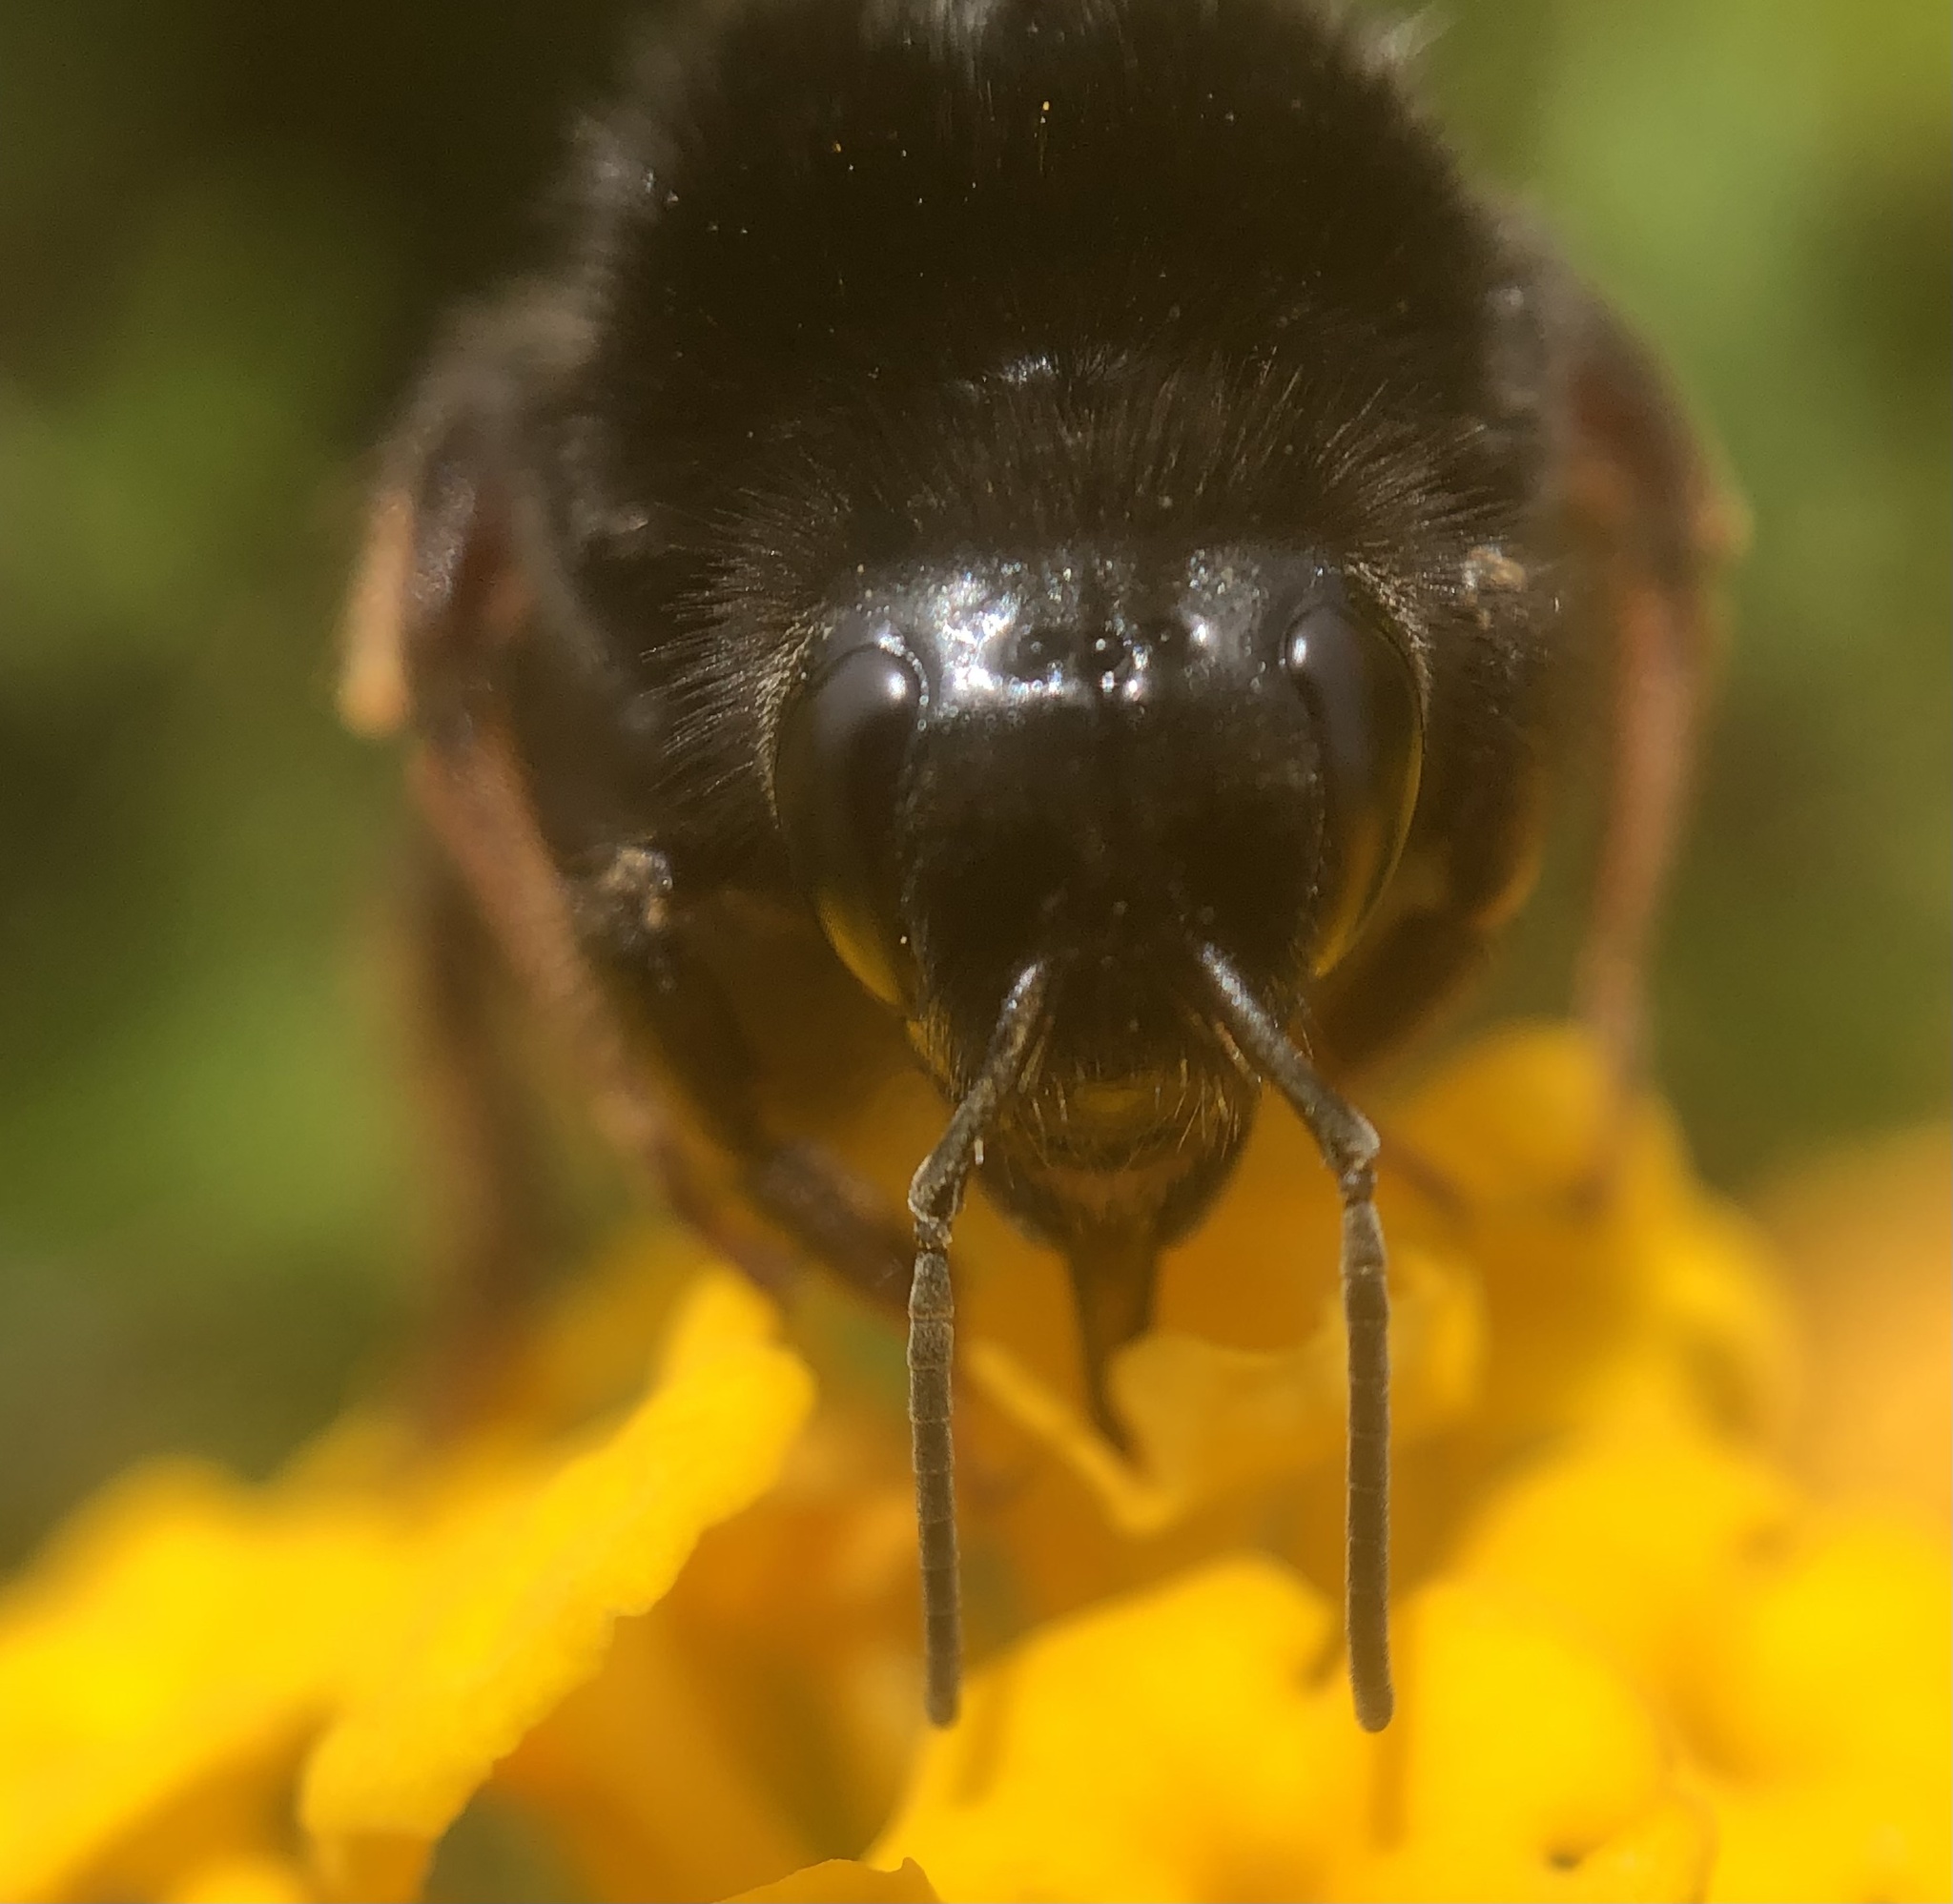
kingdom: Animalia
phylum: Arthropoda
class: Insecta
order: Hymenoptera
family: Apidae
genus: Bombus
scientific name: Bombus terrestris
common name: Buff-tailed bumblebee
